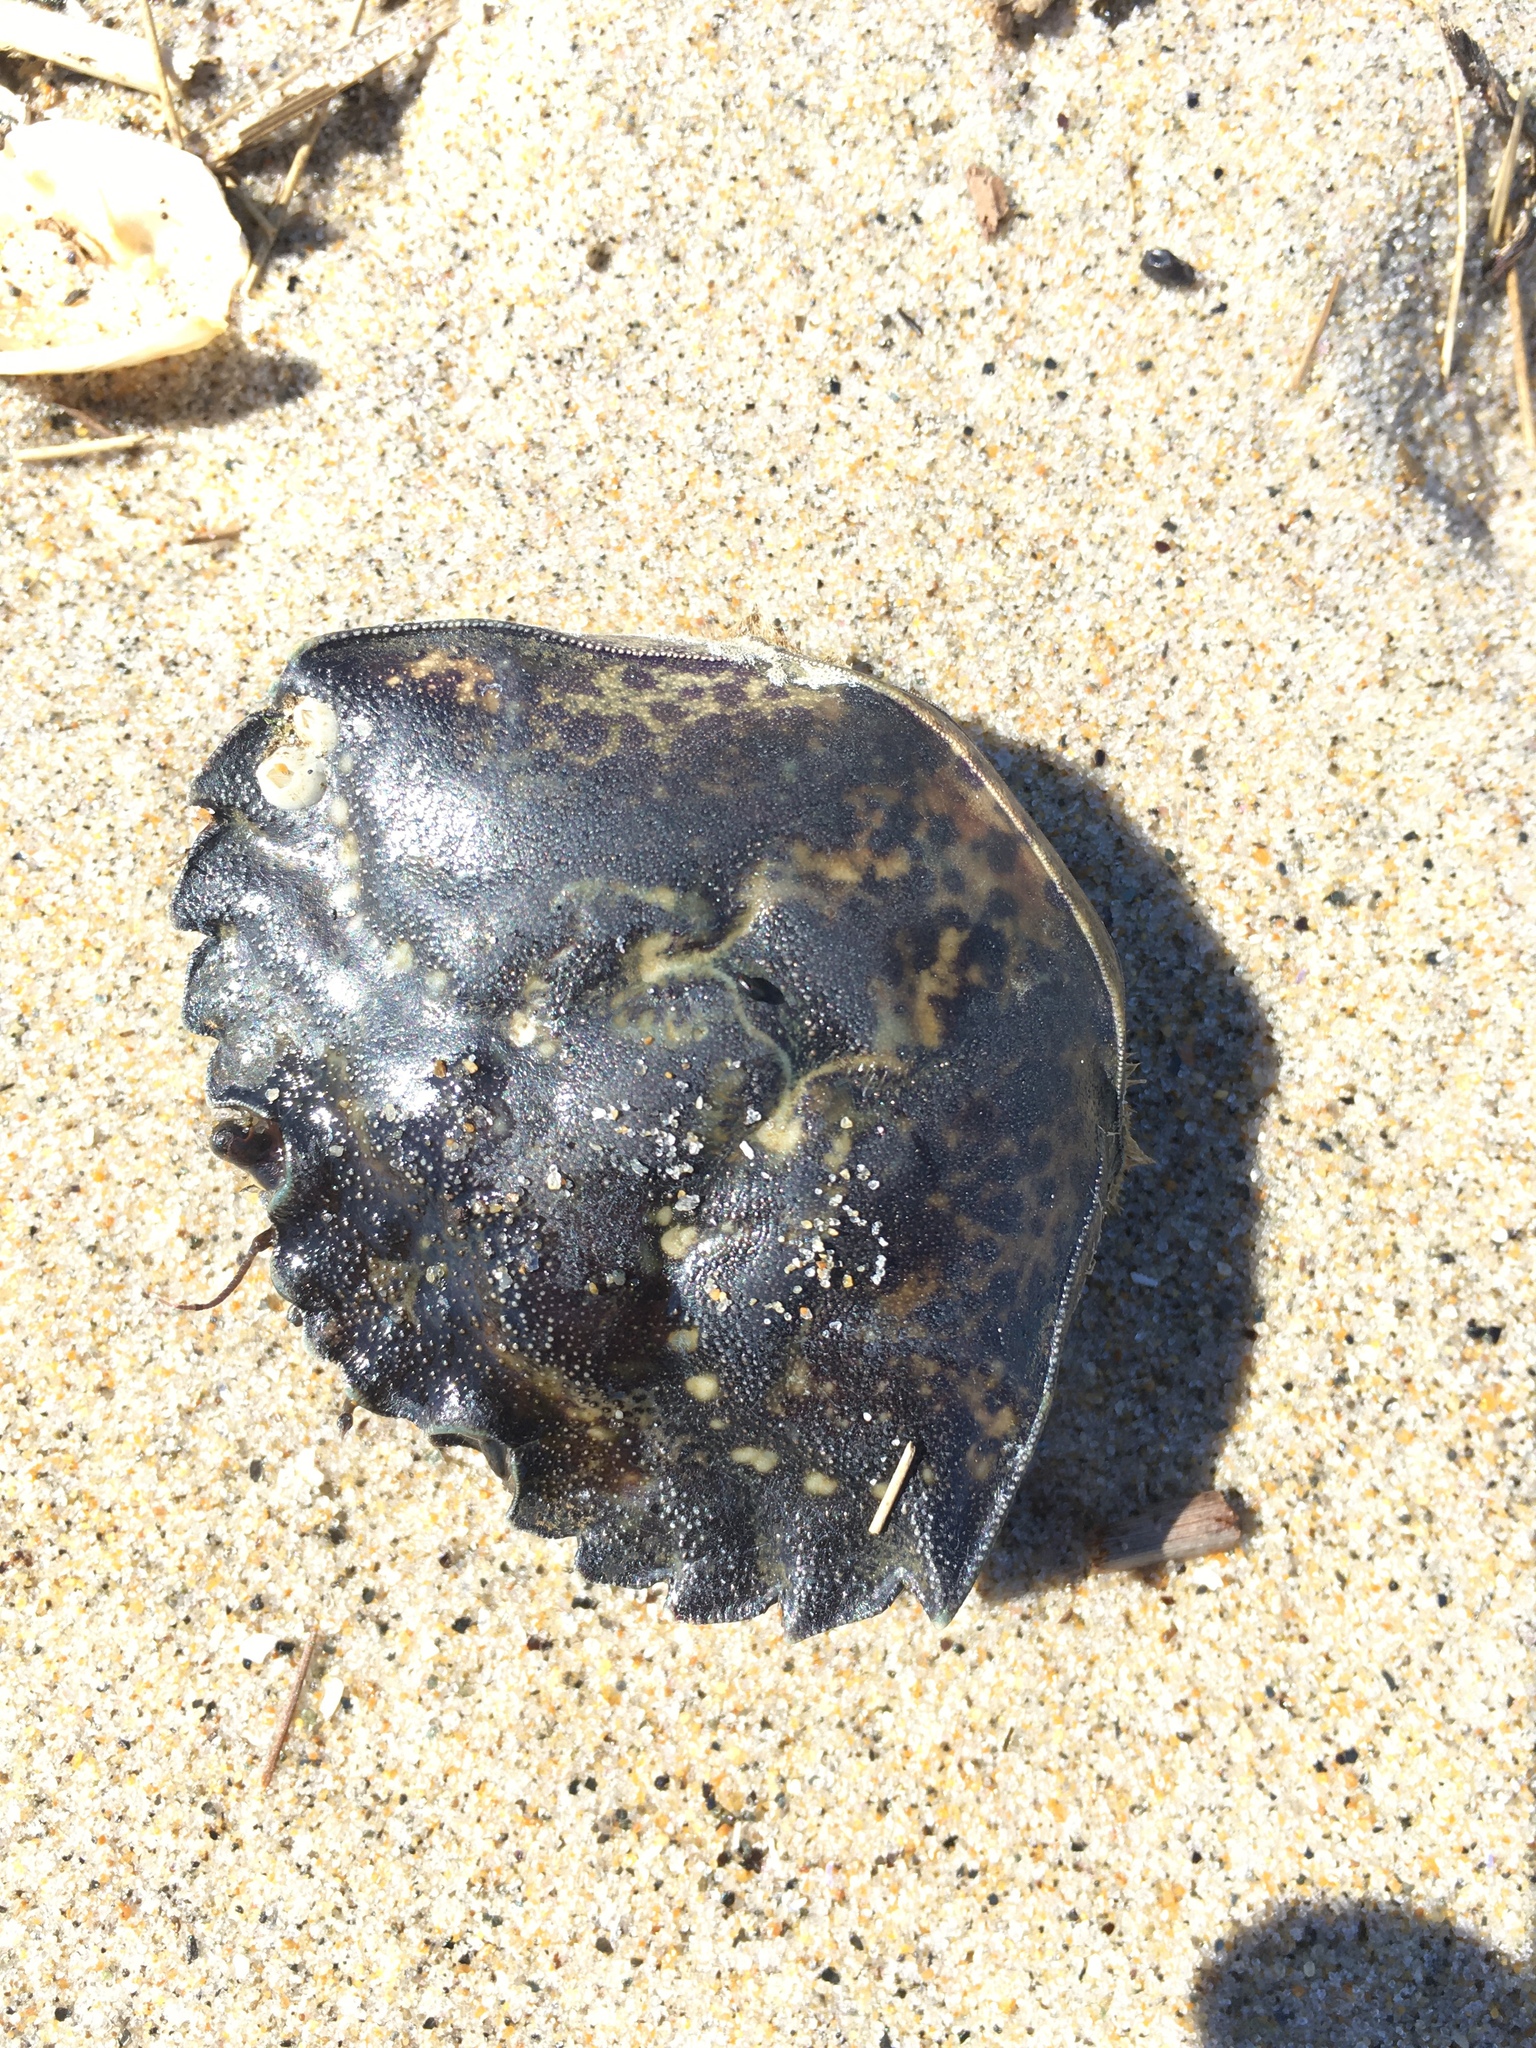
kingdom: Animalia
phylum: Arthropoda
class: Malacostraca
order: Decapoda
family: Carcinidae
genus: Carcinus
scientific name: Carcinus maenas
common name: European green crab
